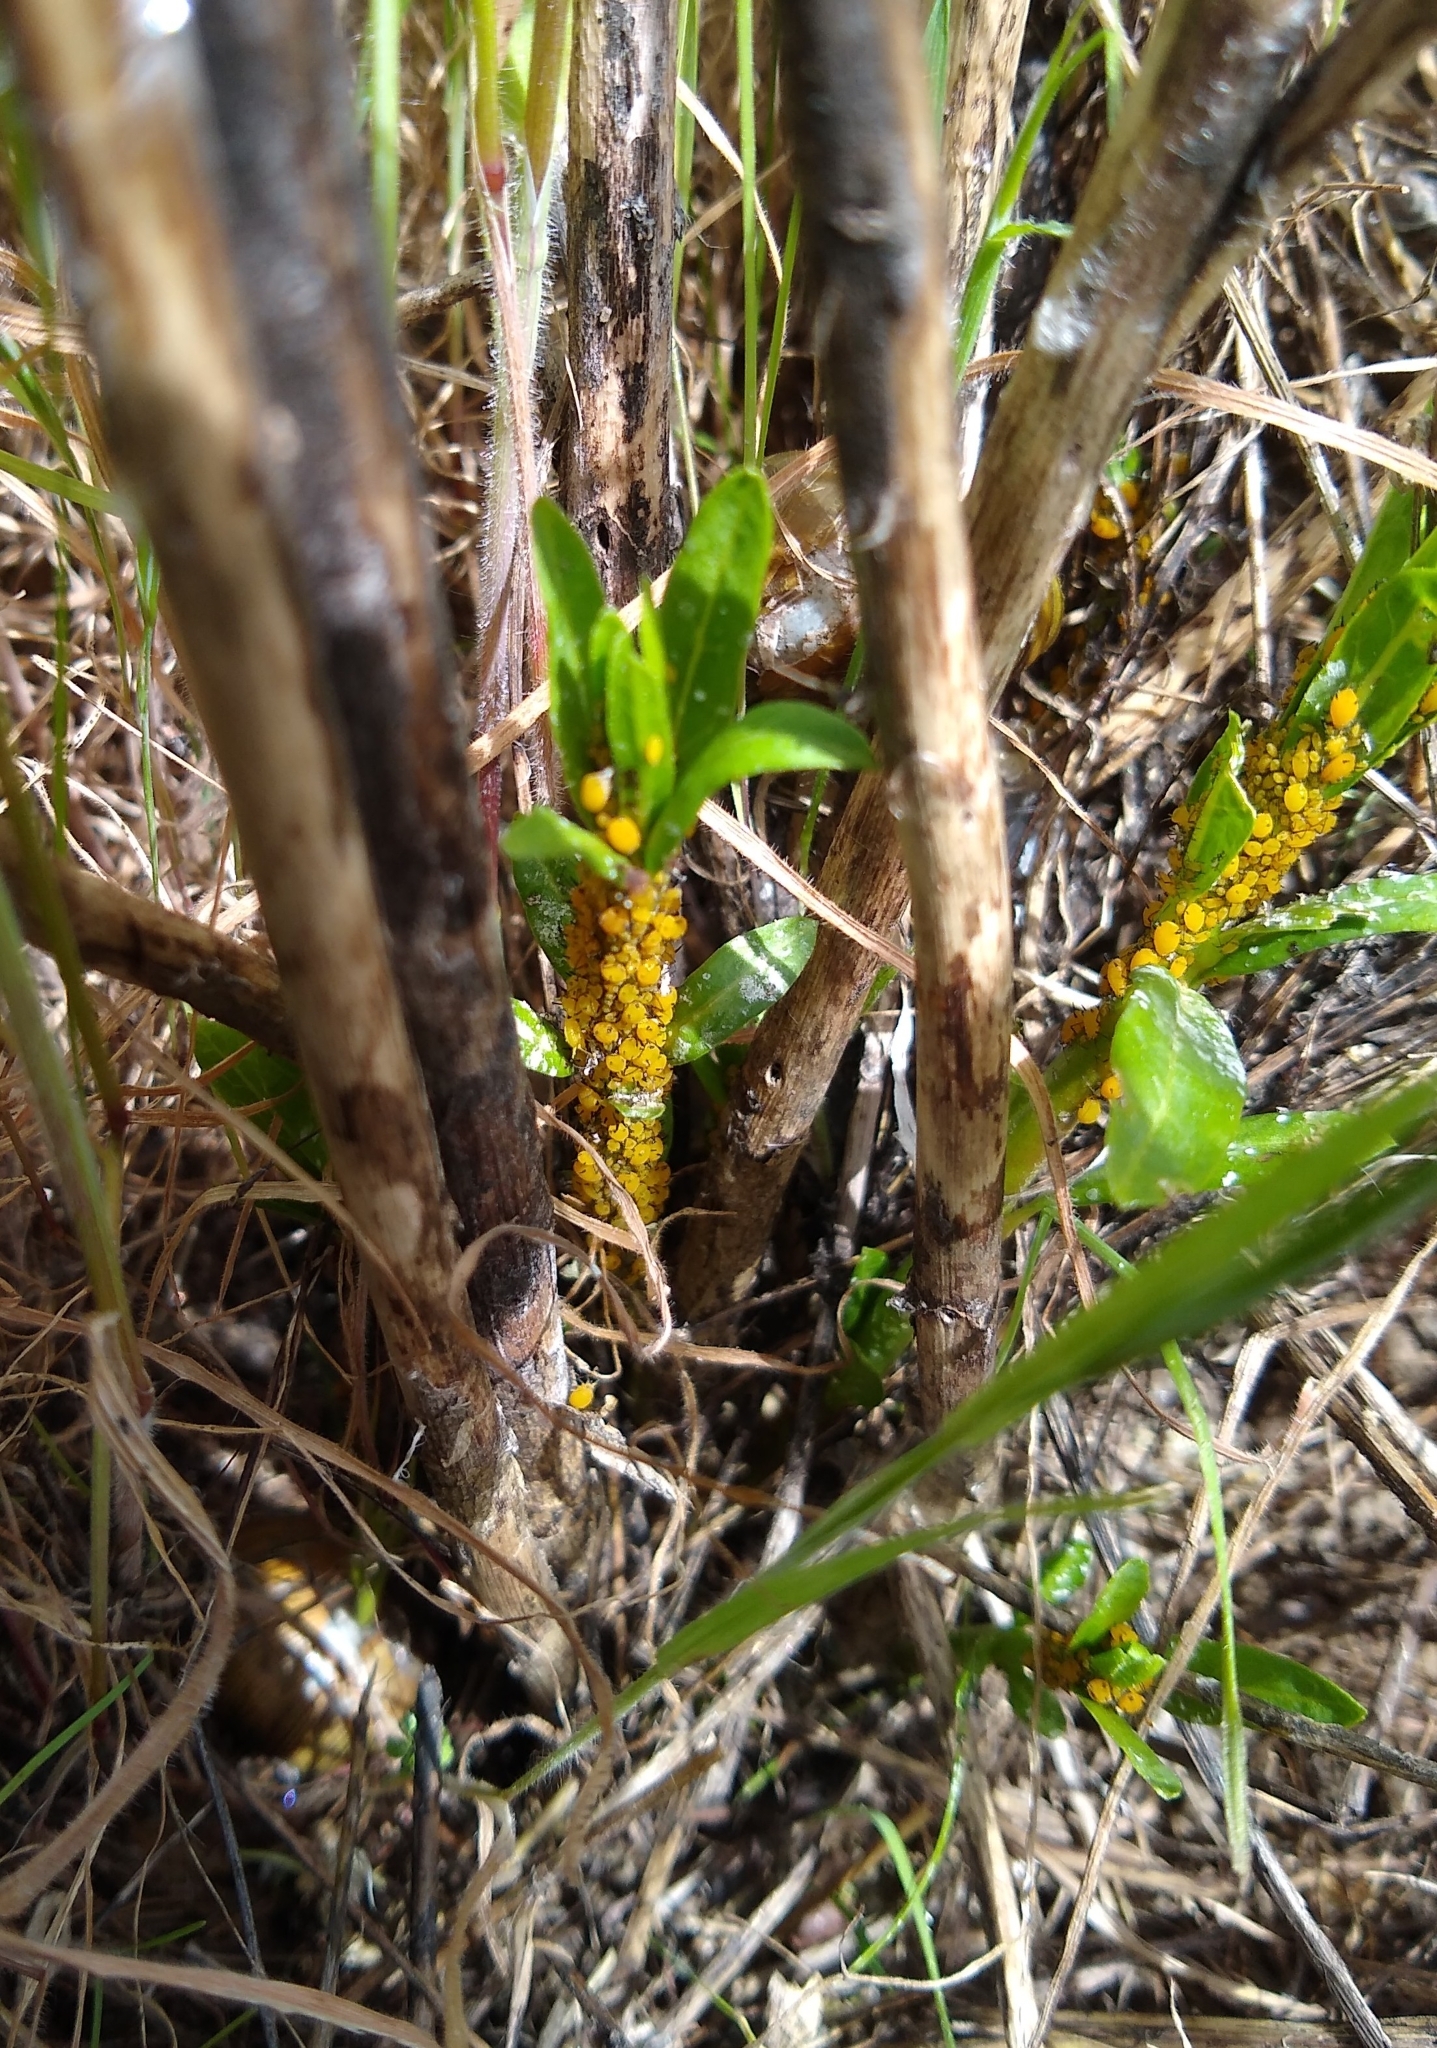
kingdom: Animalia
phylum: Arthropoda
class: Insecta
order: Hemiptera
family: Aphididae
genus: Aphis
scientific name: Aphis nerii
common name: Oleander aphid
